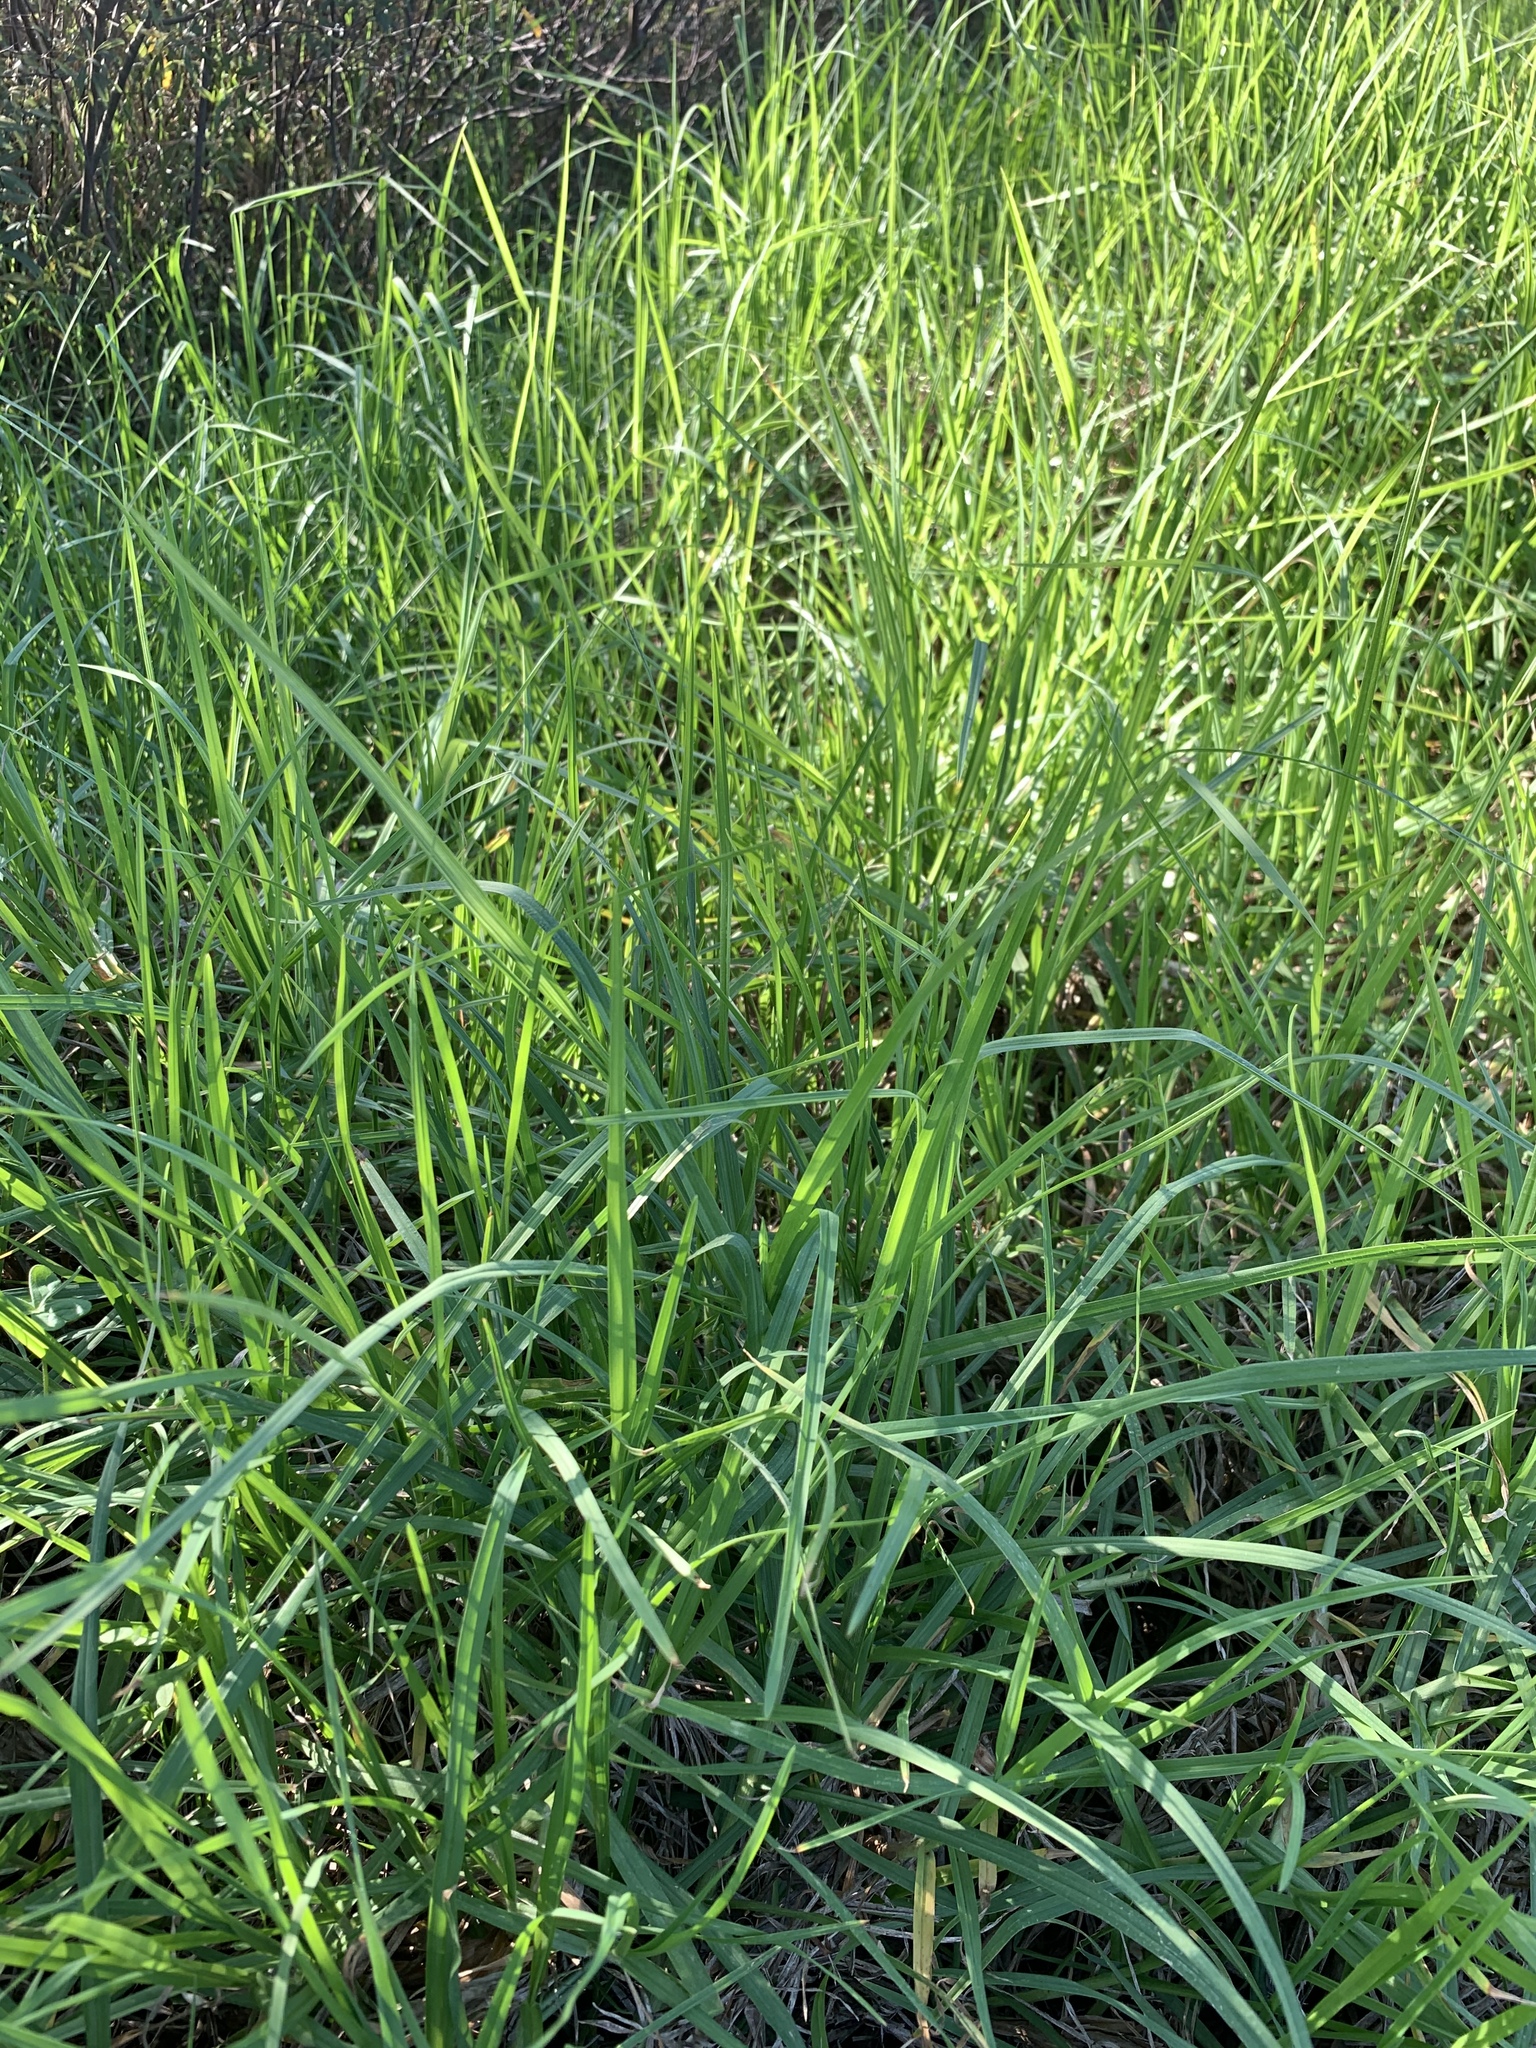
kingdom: Plantae
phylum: Tracheophyta
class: Liliopsida
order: Poales
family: Poaceae
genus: Cenchrus
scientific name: Cenchrus clandestinus
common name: Kikuyugrass
